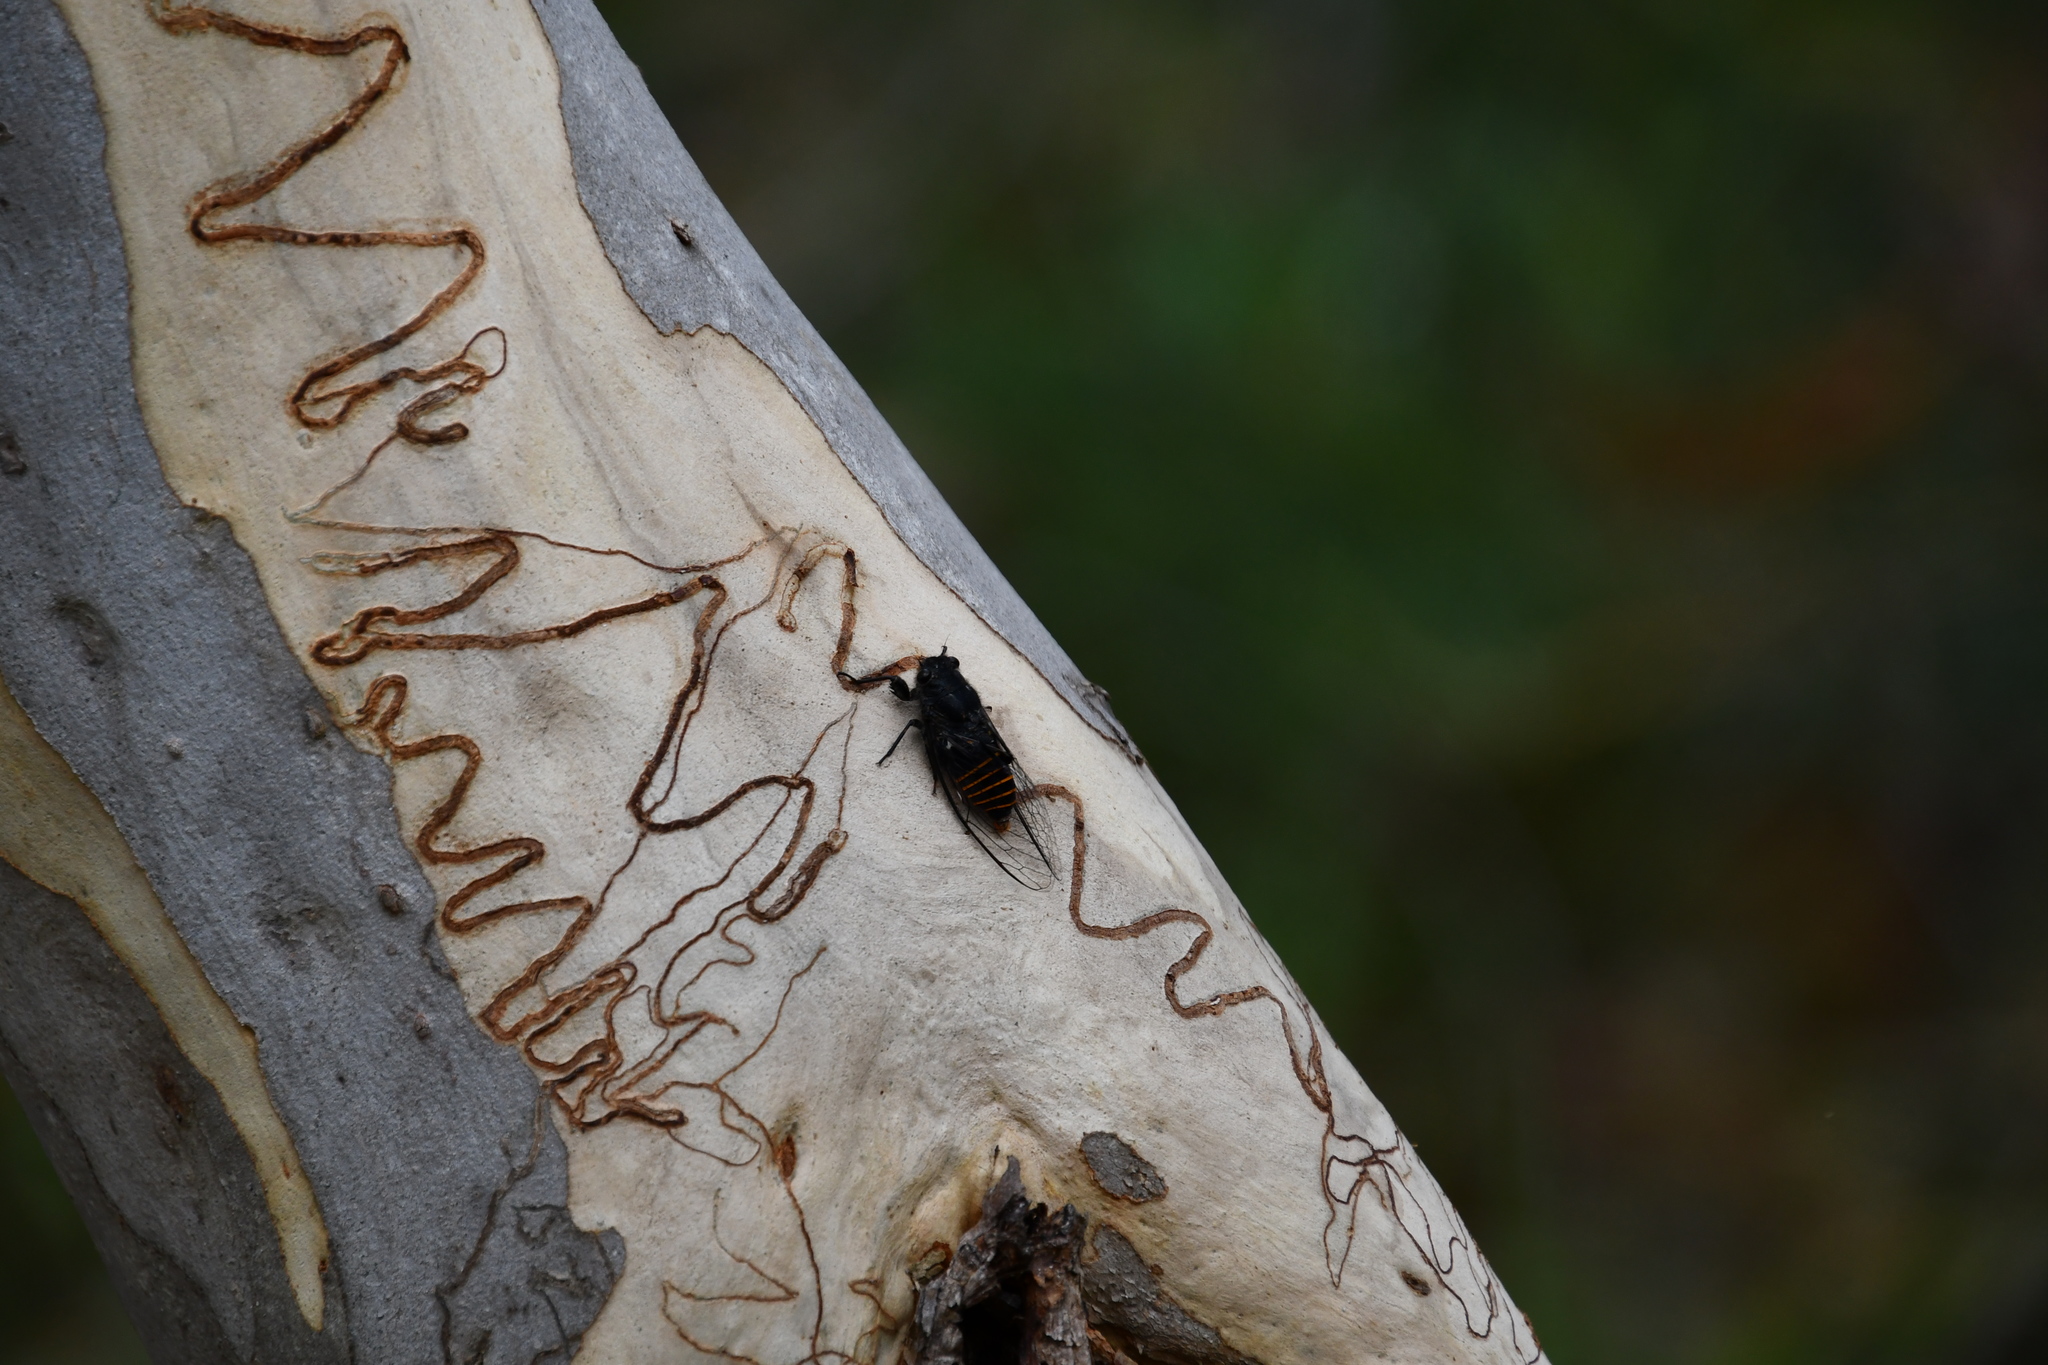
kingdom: Animalia
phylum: Arthropoda
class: Insecta
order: Hemiptera
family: Cicadidae
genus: Pauropsalta
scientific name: Pauropsalta mneme
